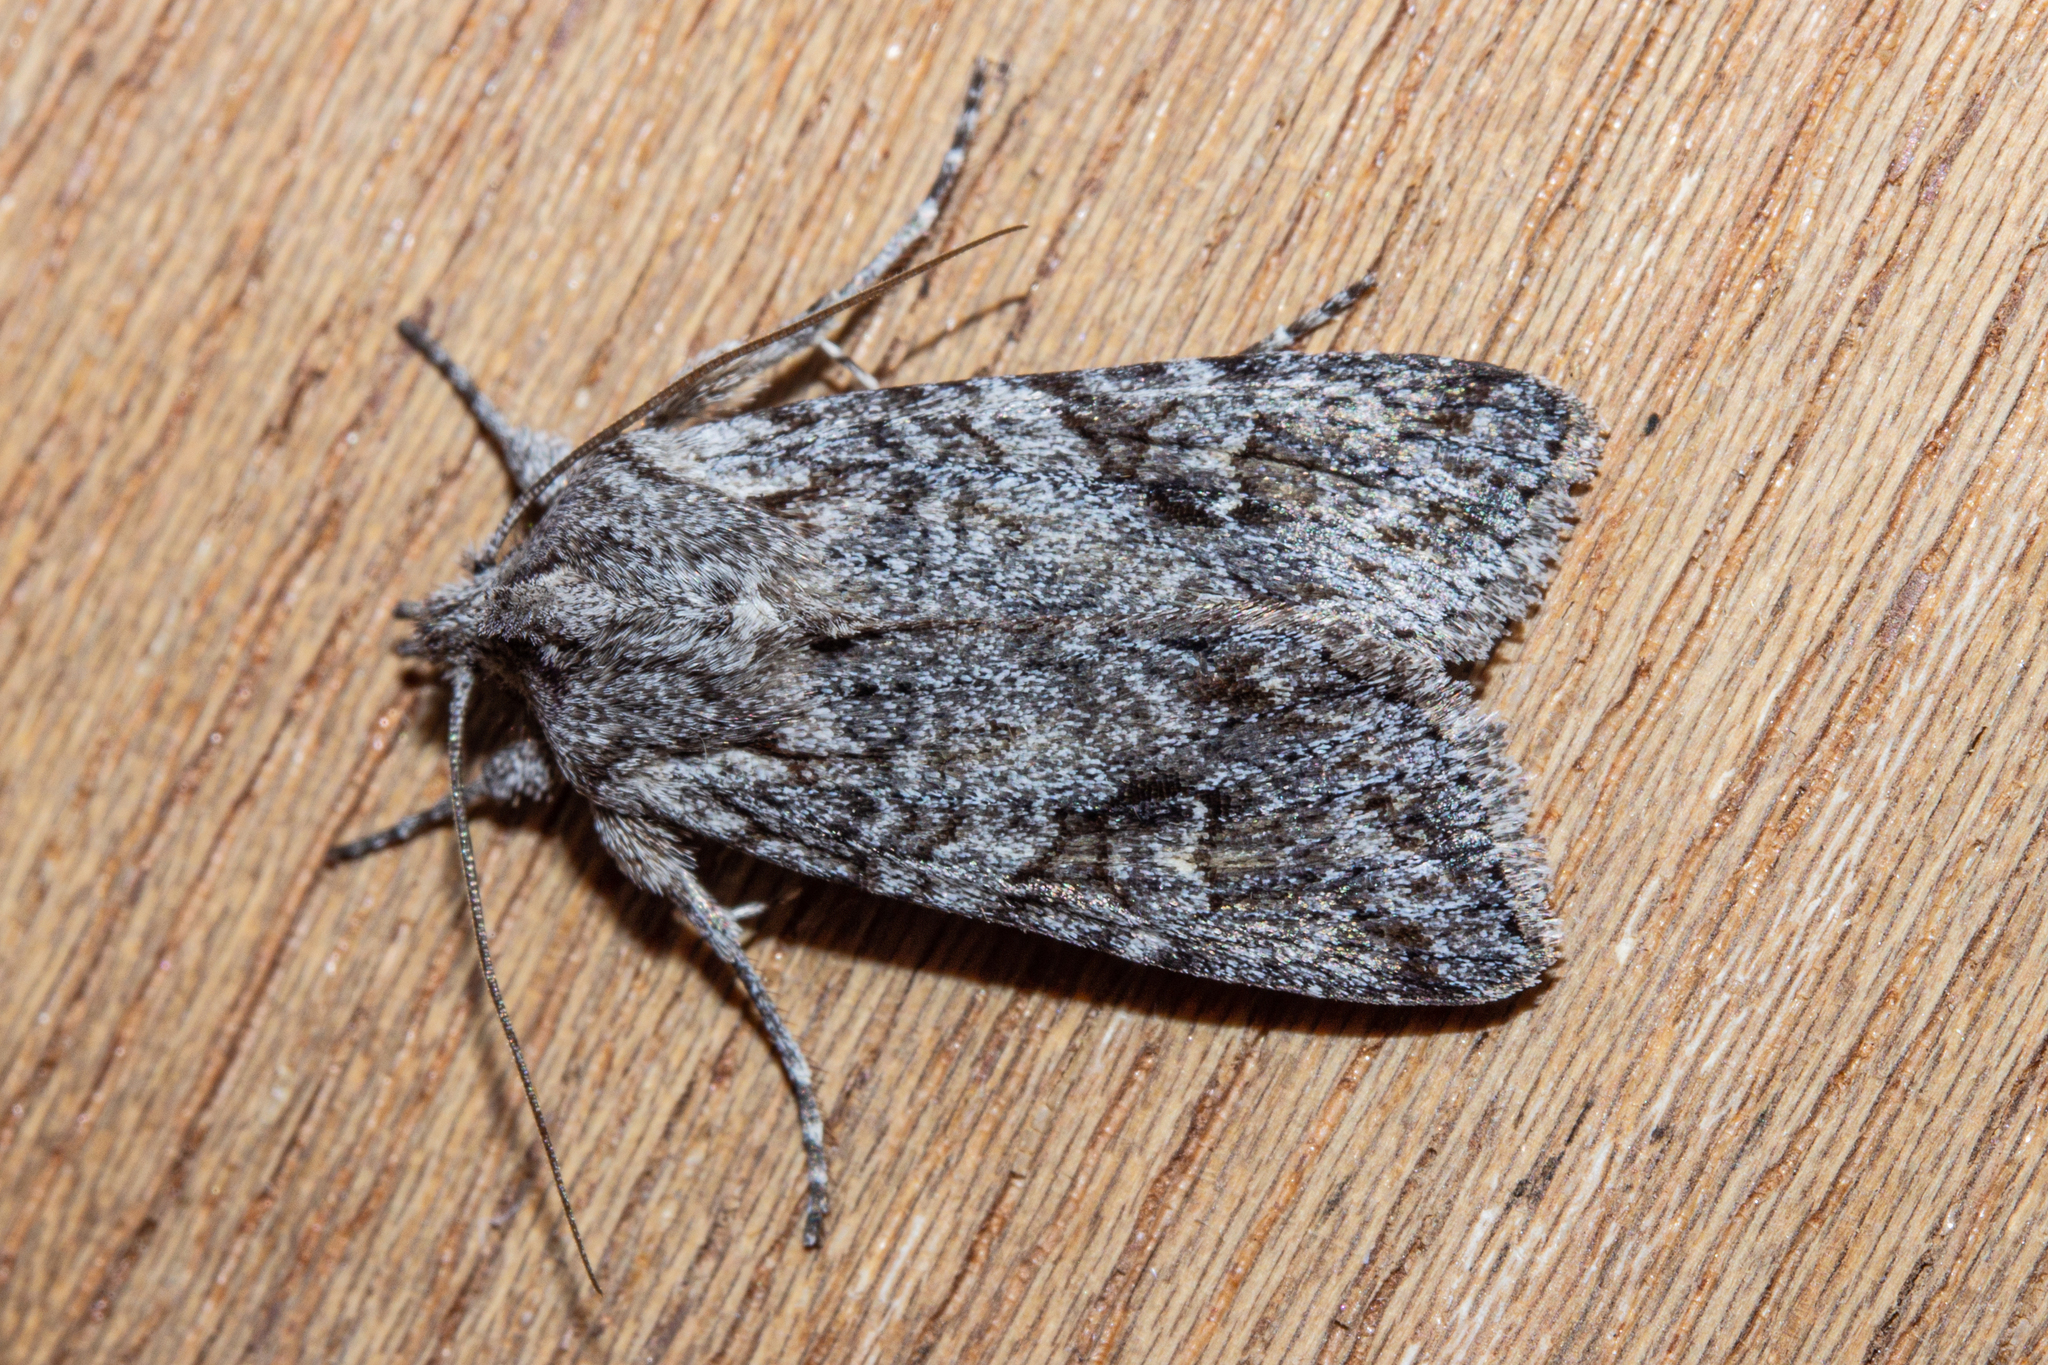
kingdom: Animalia
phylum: Arthropoda
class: Insecta
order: Lepidoptera
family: Noctuidae
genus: Physetica
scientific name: Physetica longstaffii
